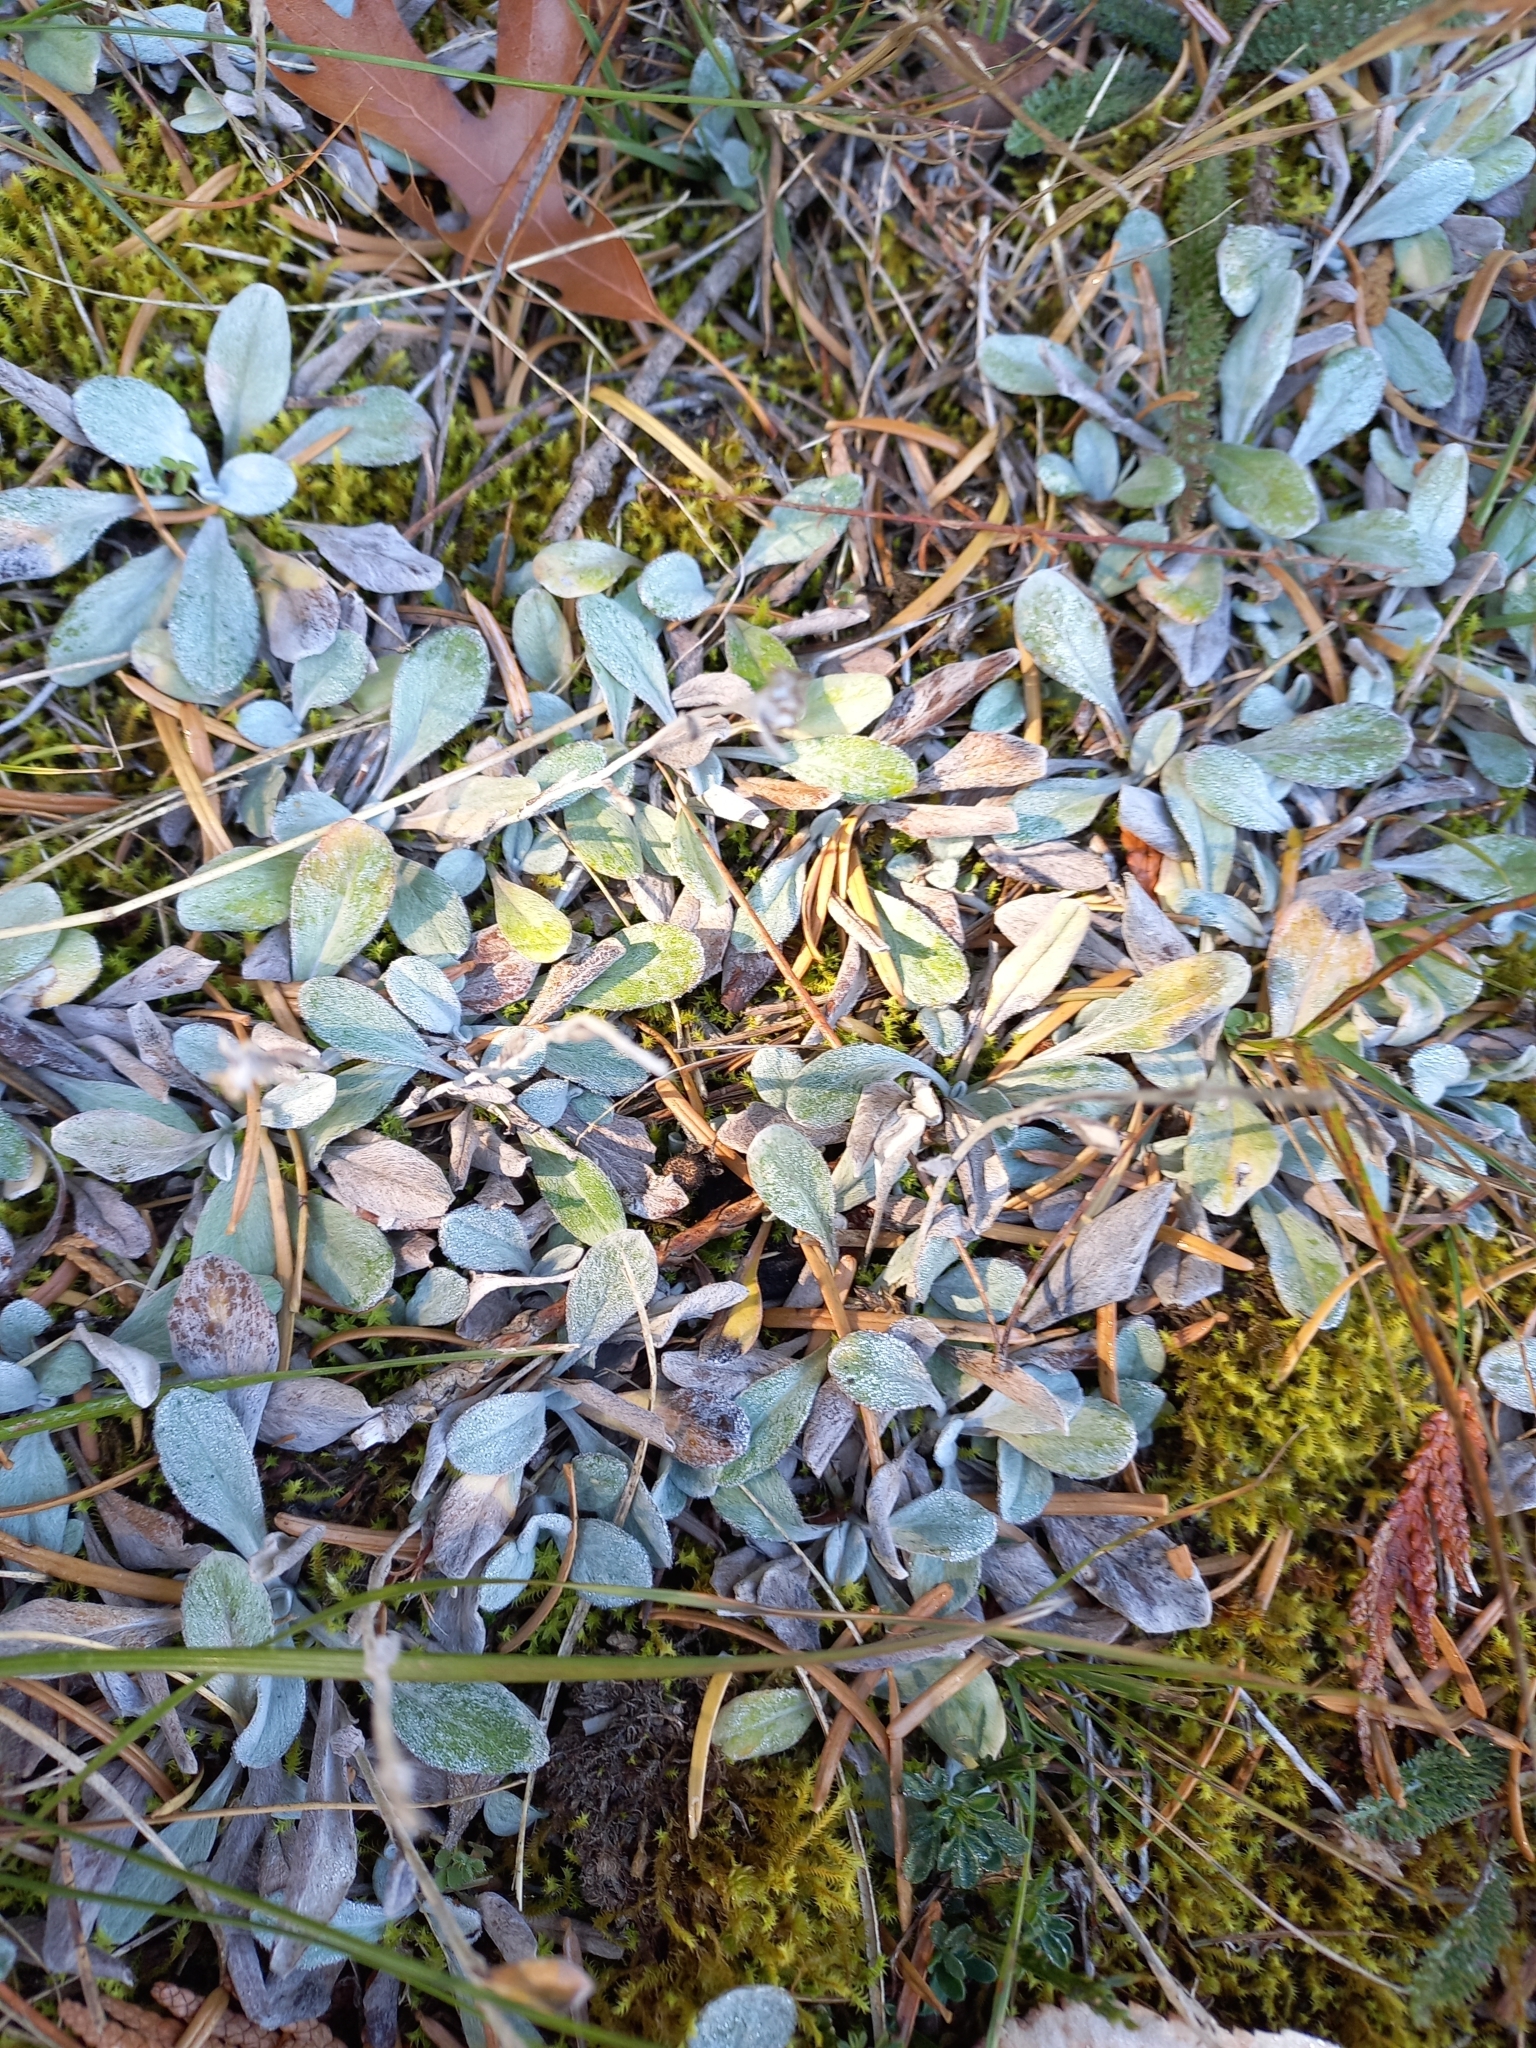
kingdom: Plantae
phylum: Tracheophyta
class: Magnoliopsida
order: Asterales
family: Asteraceae
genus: Euchiton
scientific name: Euchiton audax
